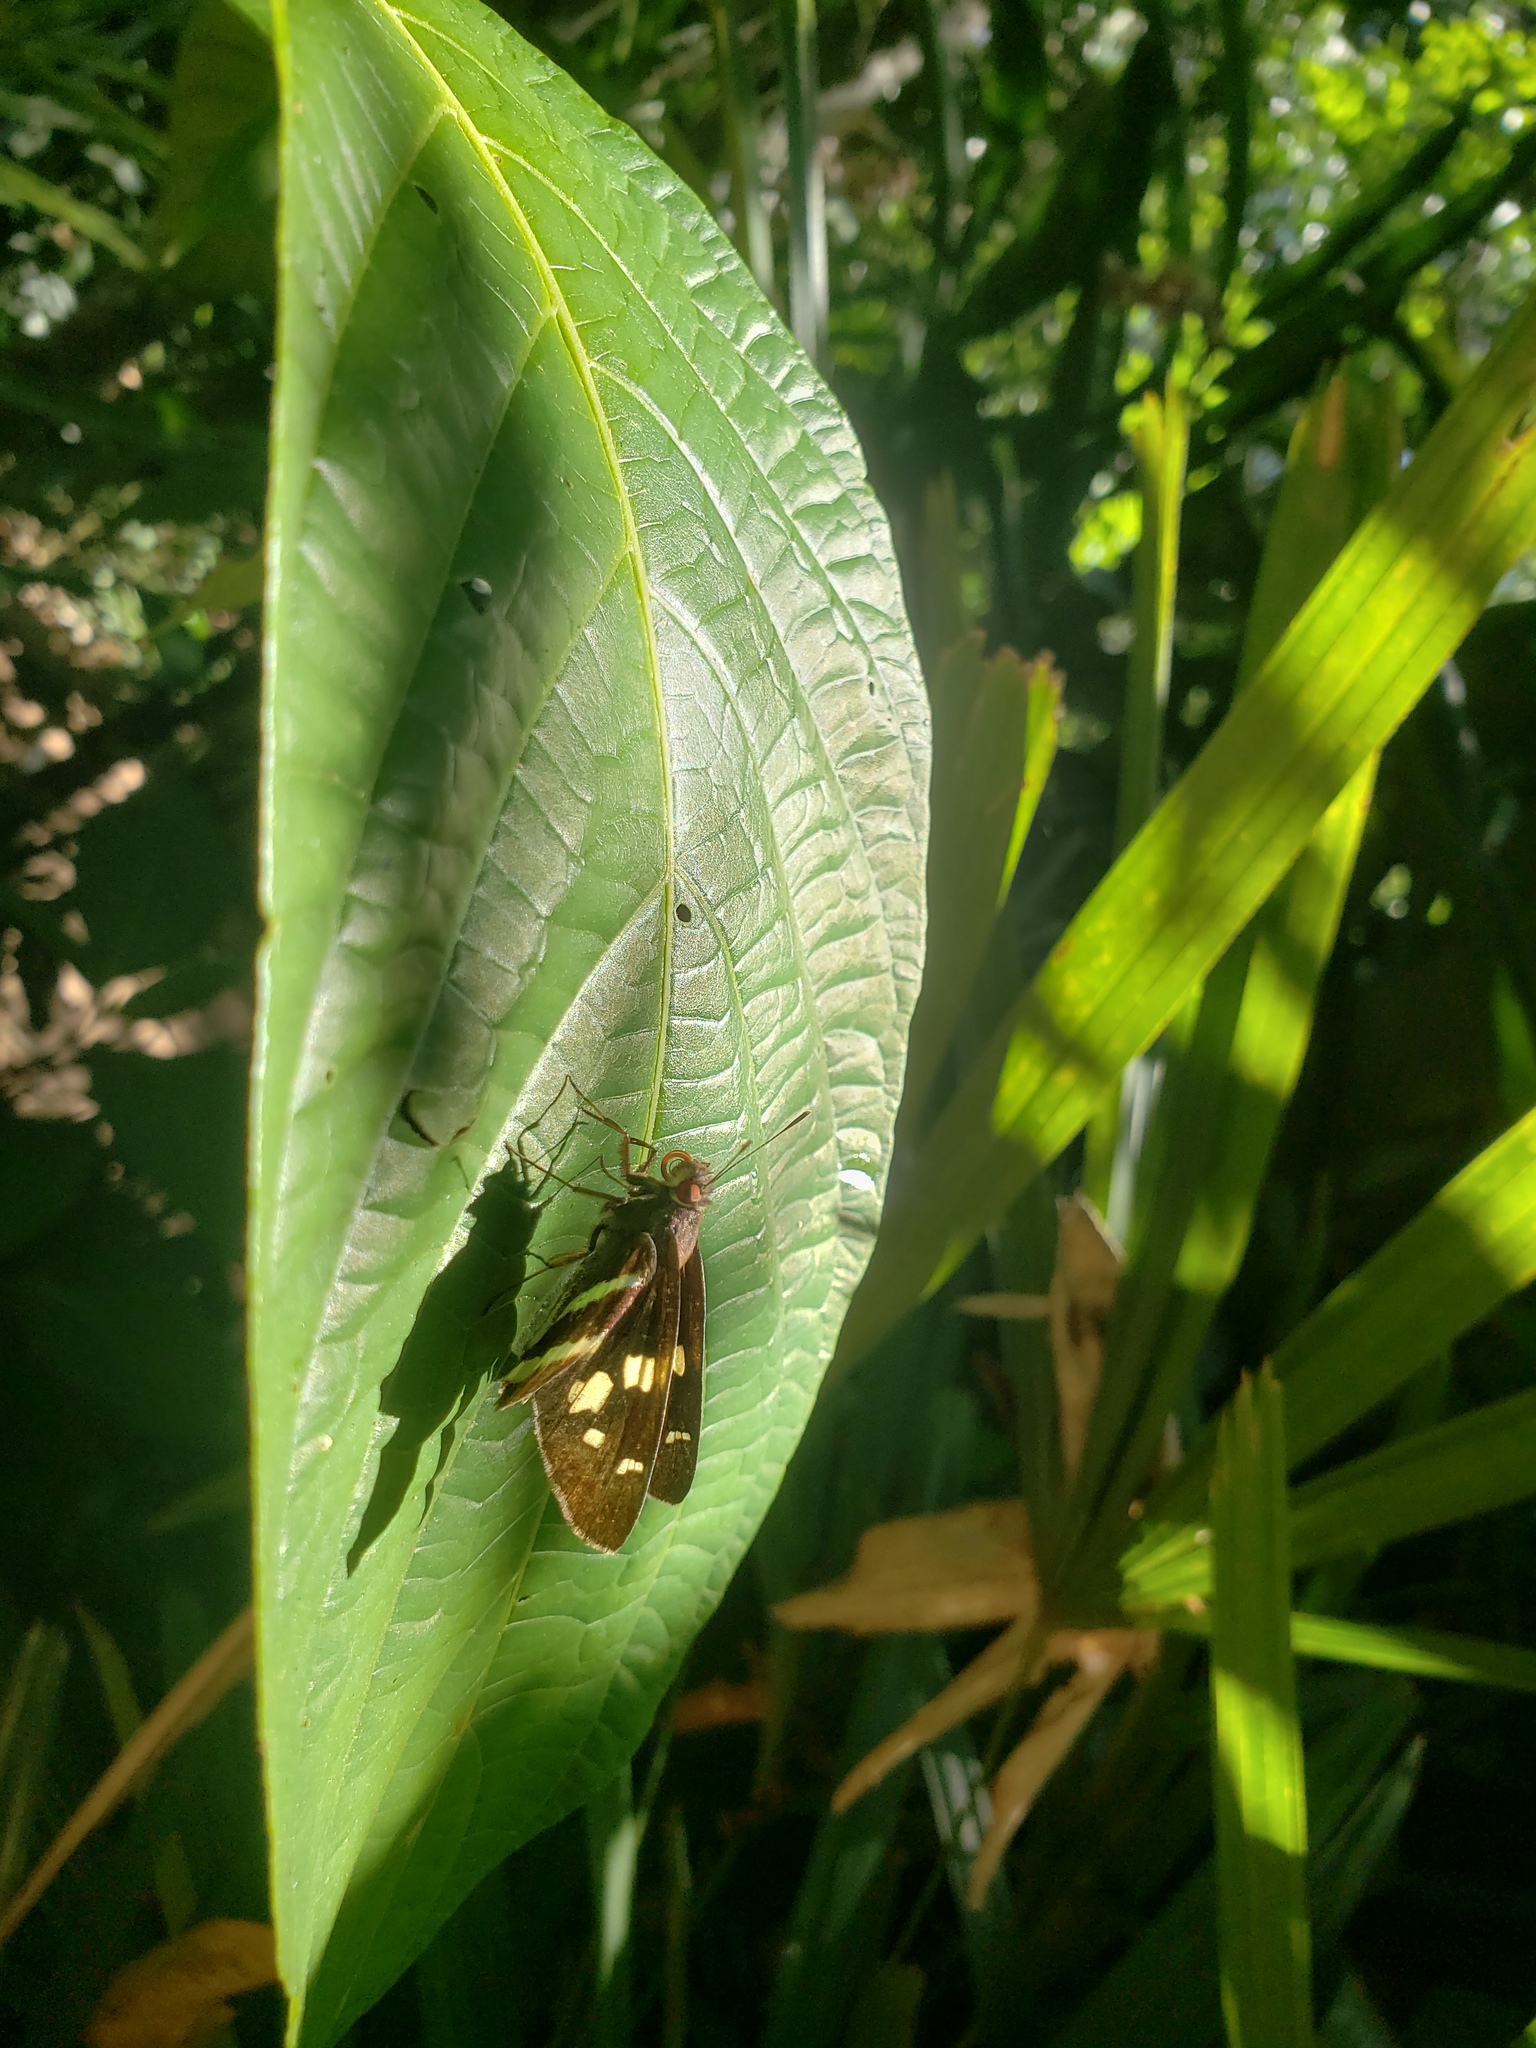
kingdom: Animalia
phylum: Arthropoda
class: Insecta
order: Lepidoptera
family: Hesperiidae
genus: Lycas
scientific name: Lycas argentea
